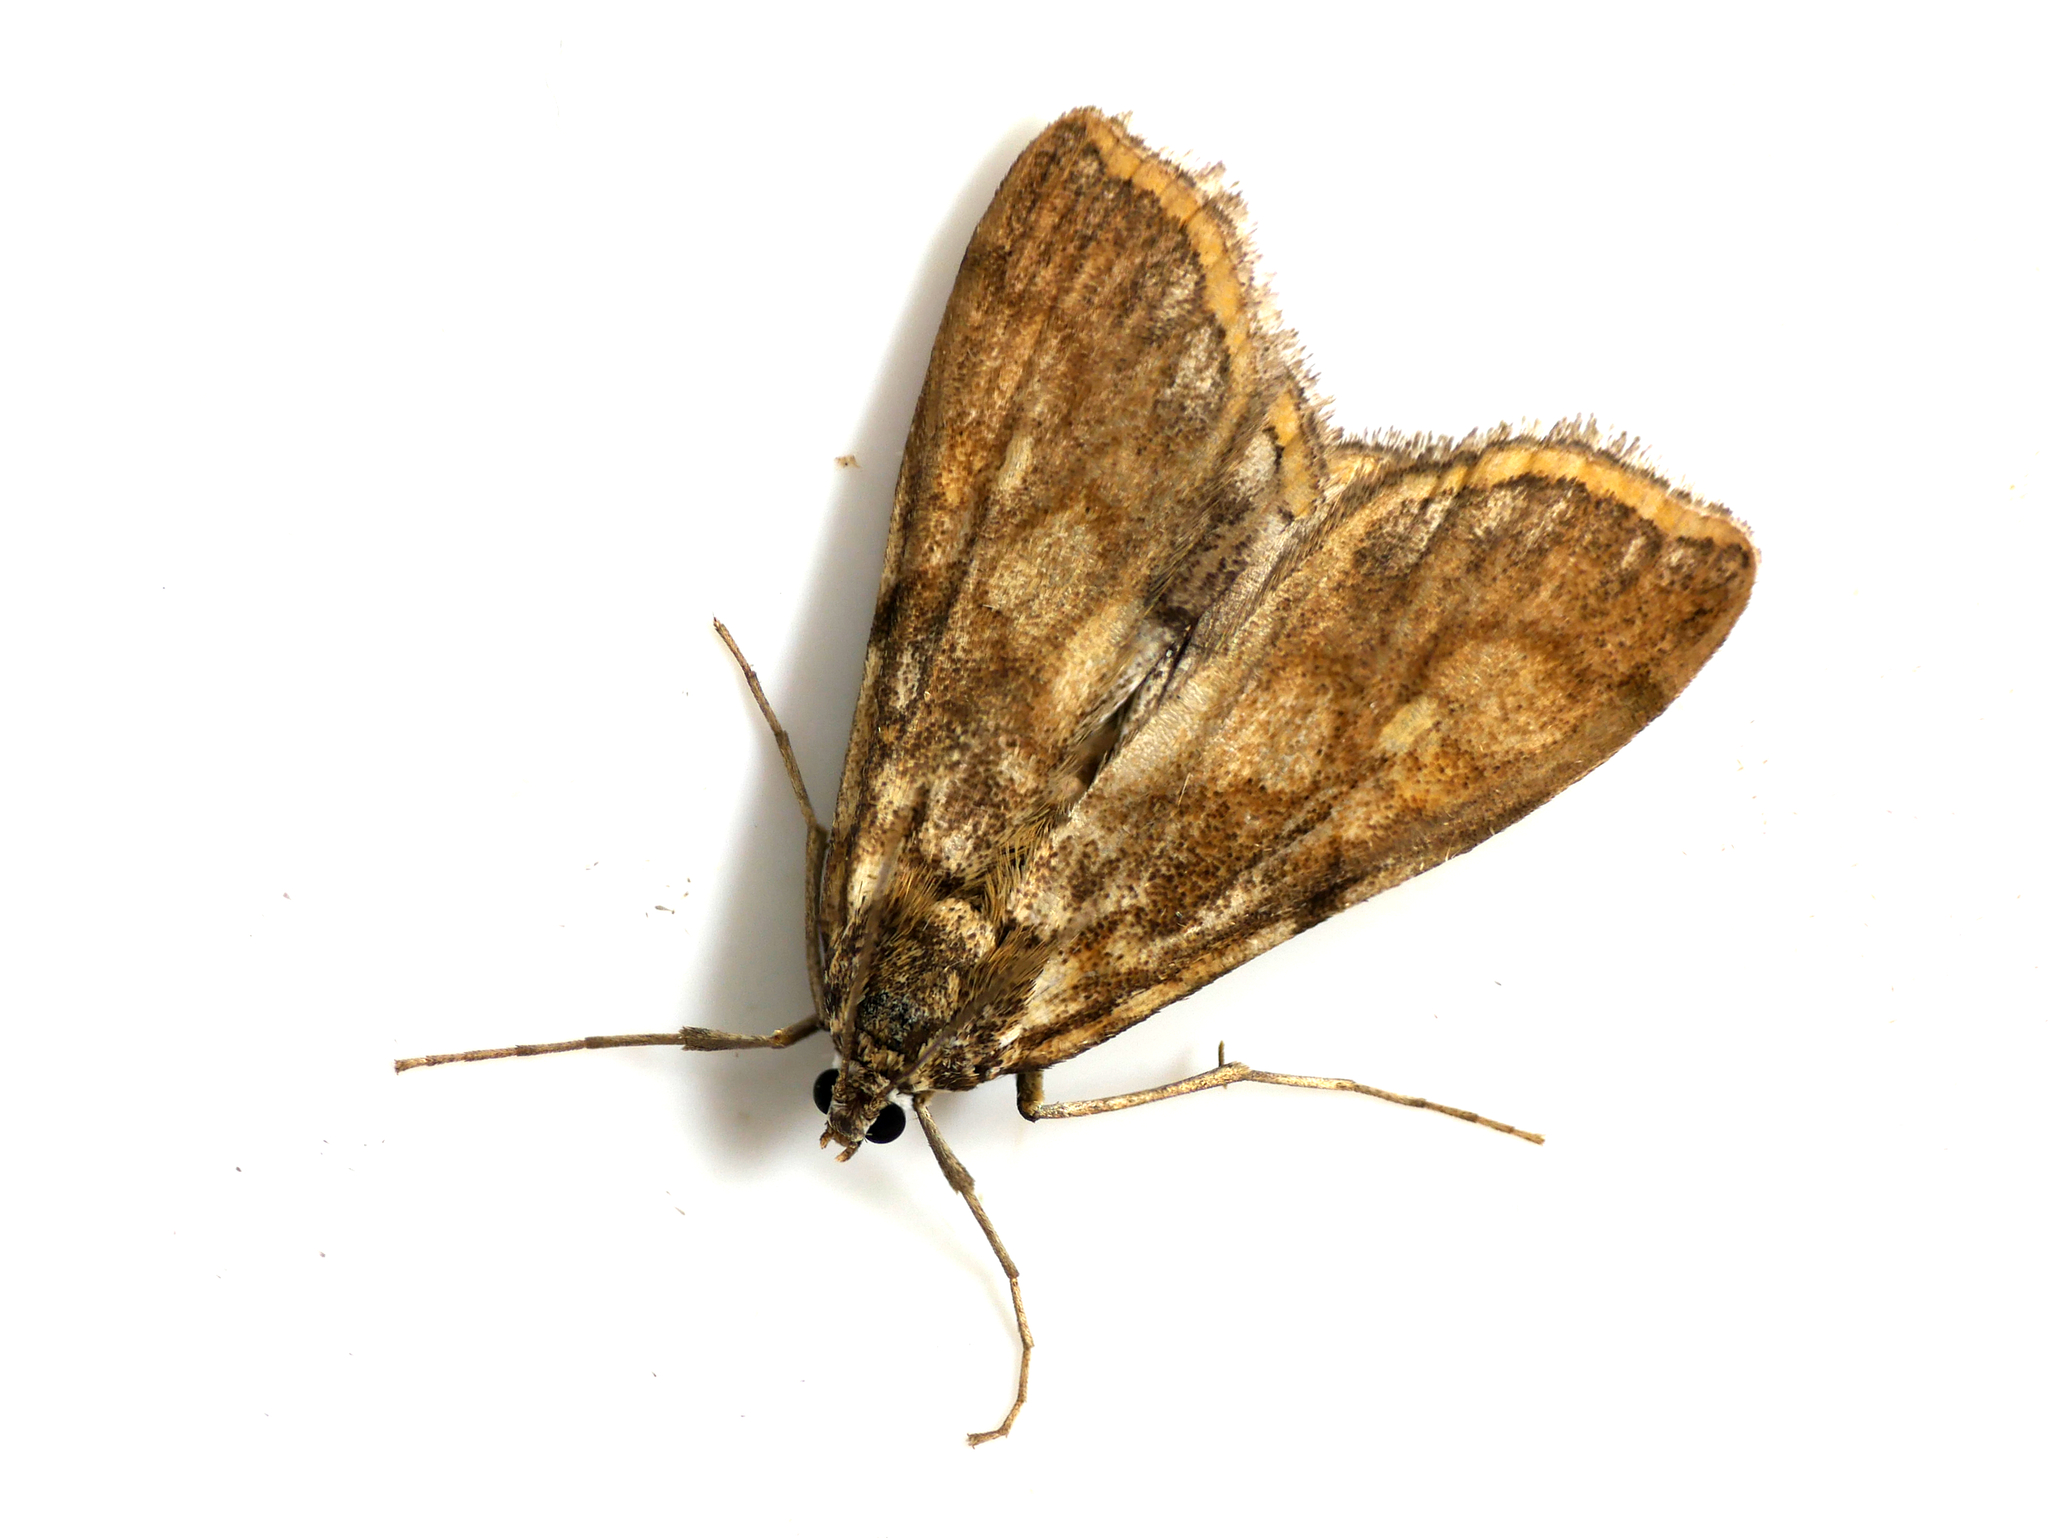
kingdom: Animalia
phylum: Arthropoda
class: Insecta
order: Lepidoptera
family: Crambidae
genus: Elophila
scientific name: Elophila nymphaeata
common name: Brown china-mark
